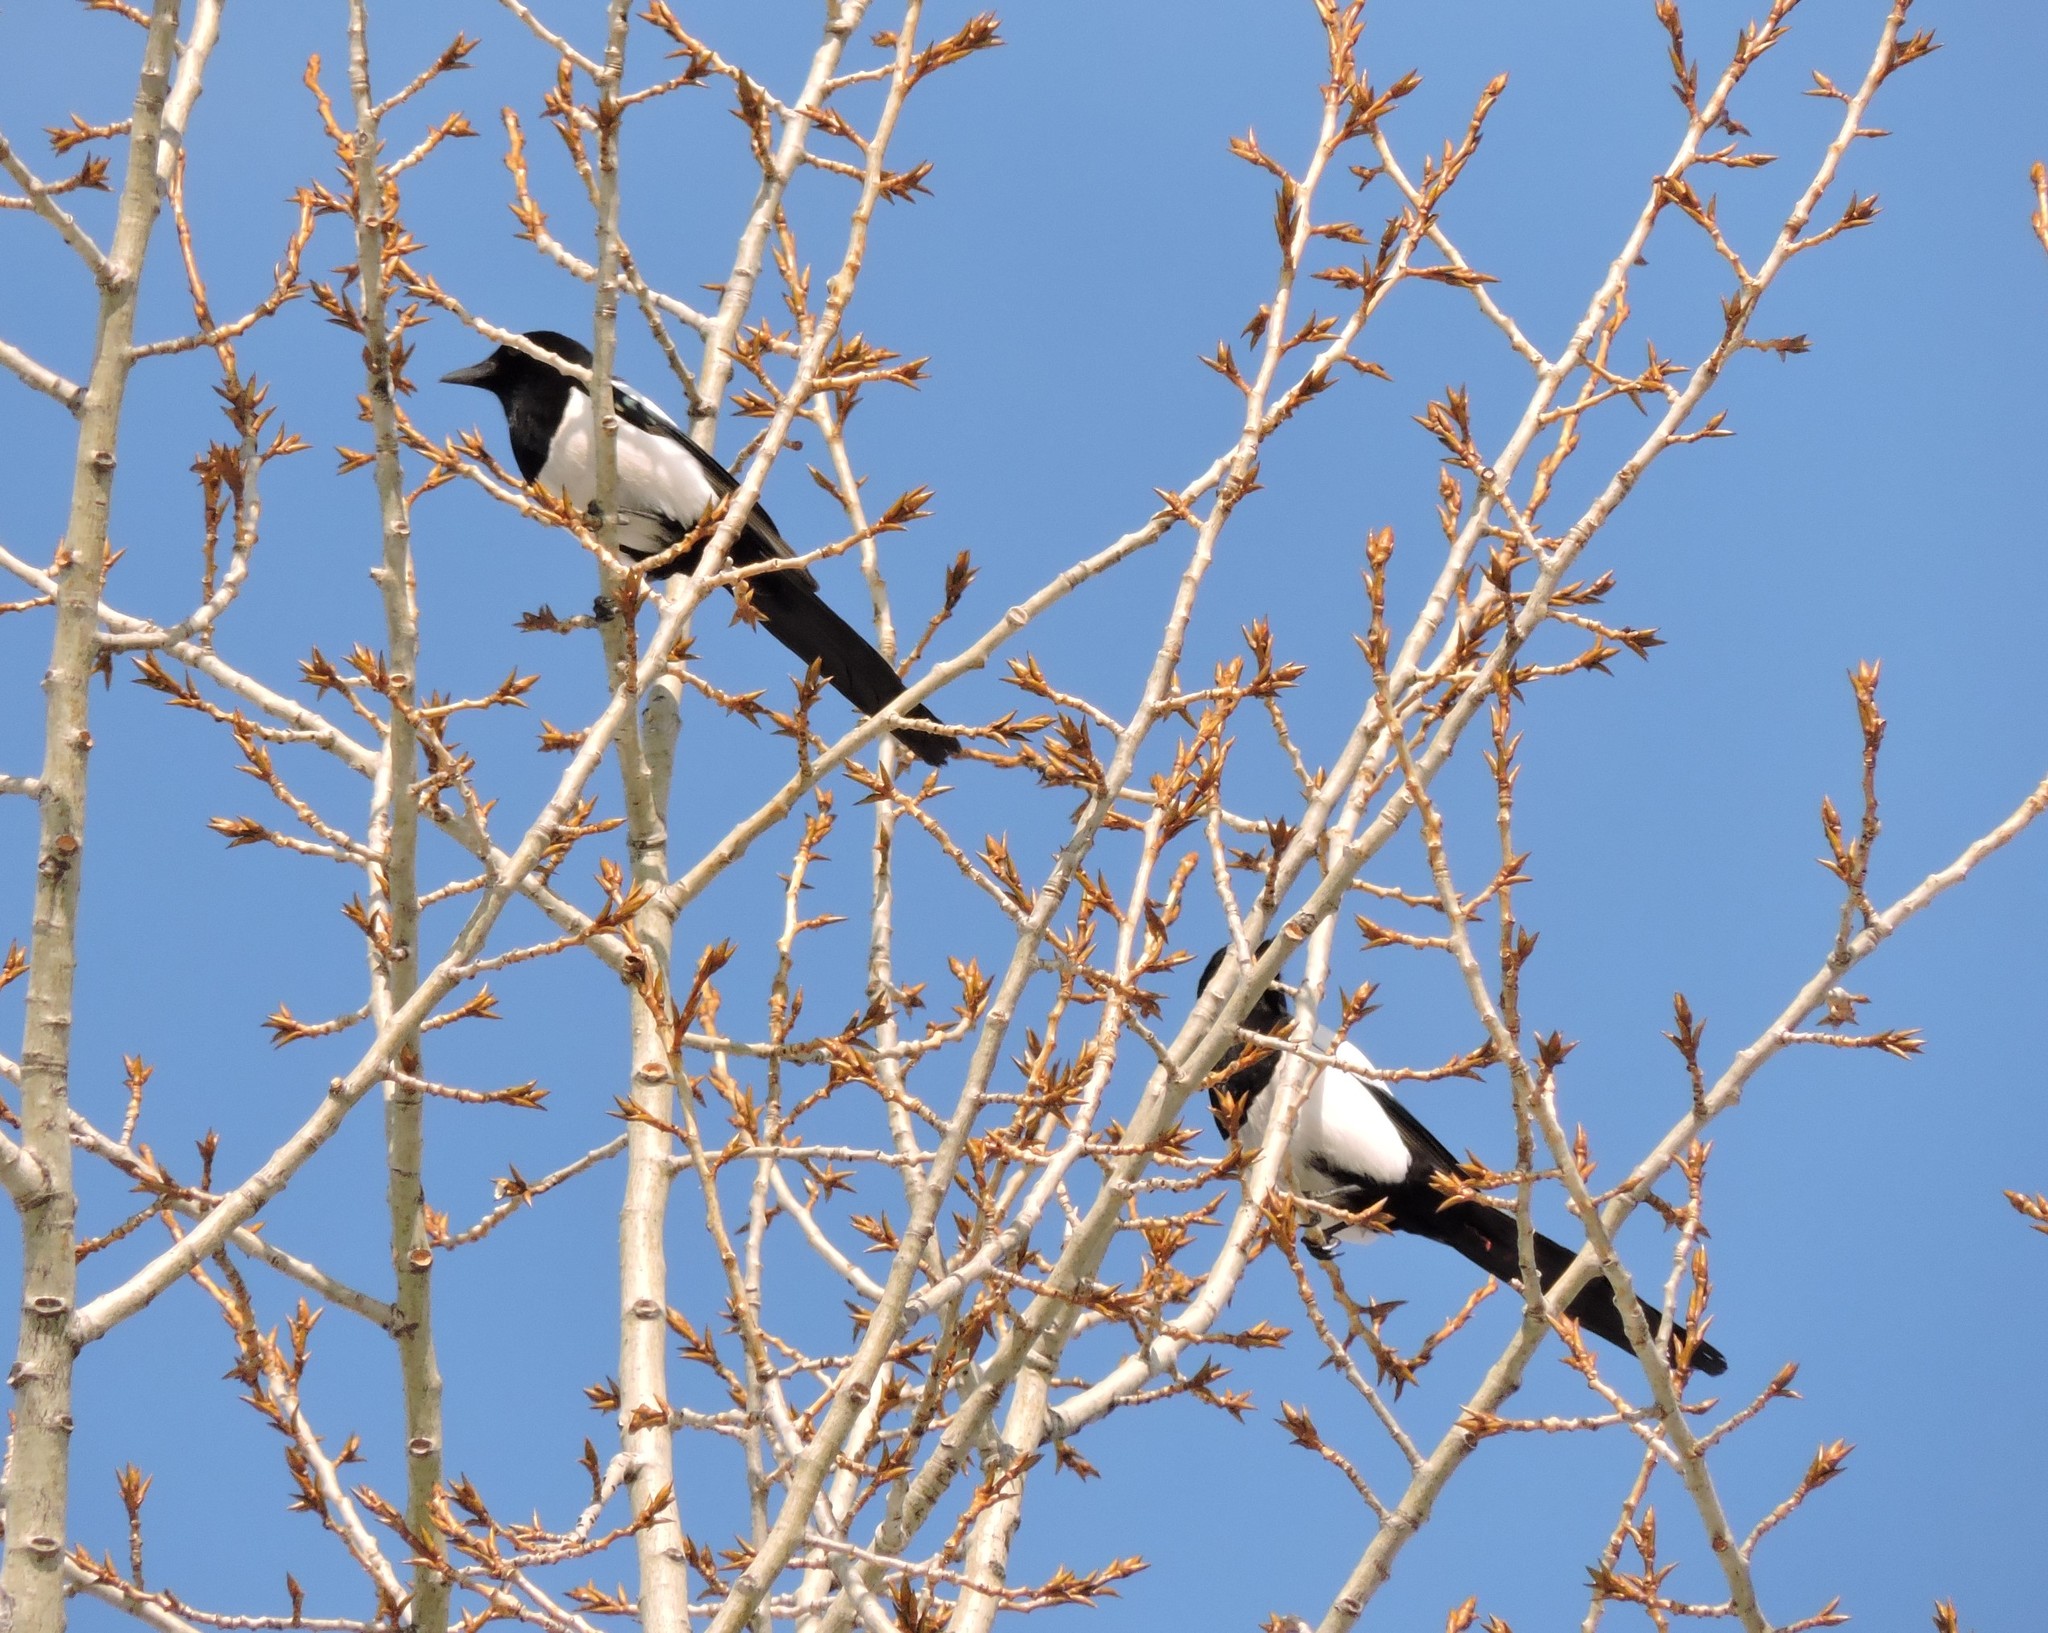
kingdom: Animalia
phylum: Chordata
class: Aves
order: Passeriformes
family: Corvidae
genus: Pica
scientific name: Pica pica
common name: Eurasian magpie
